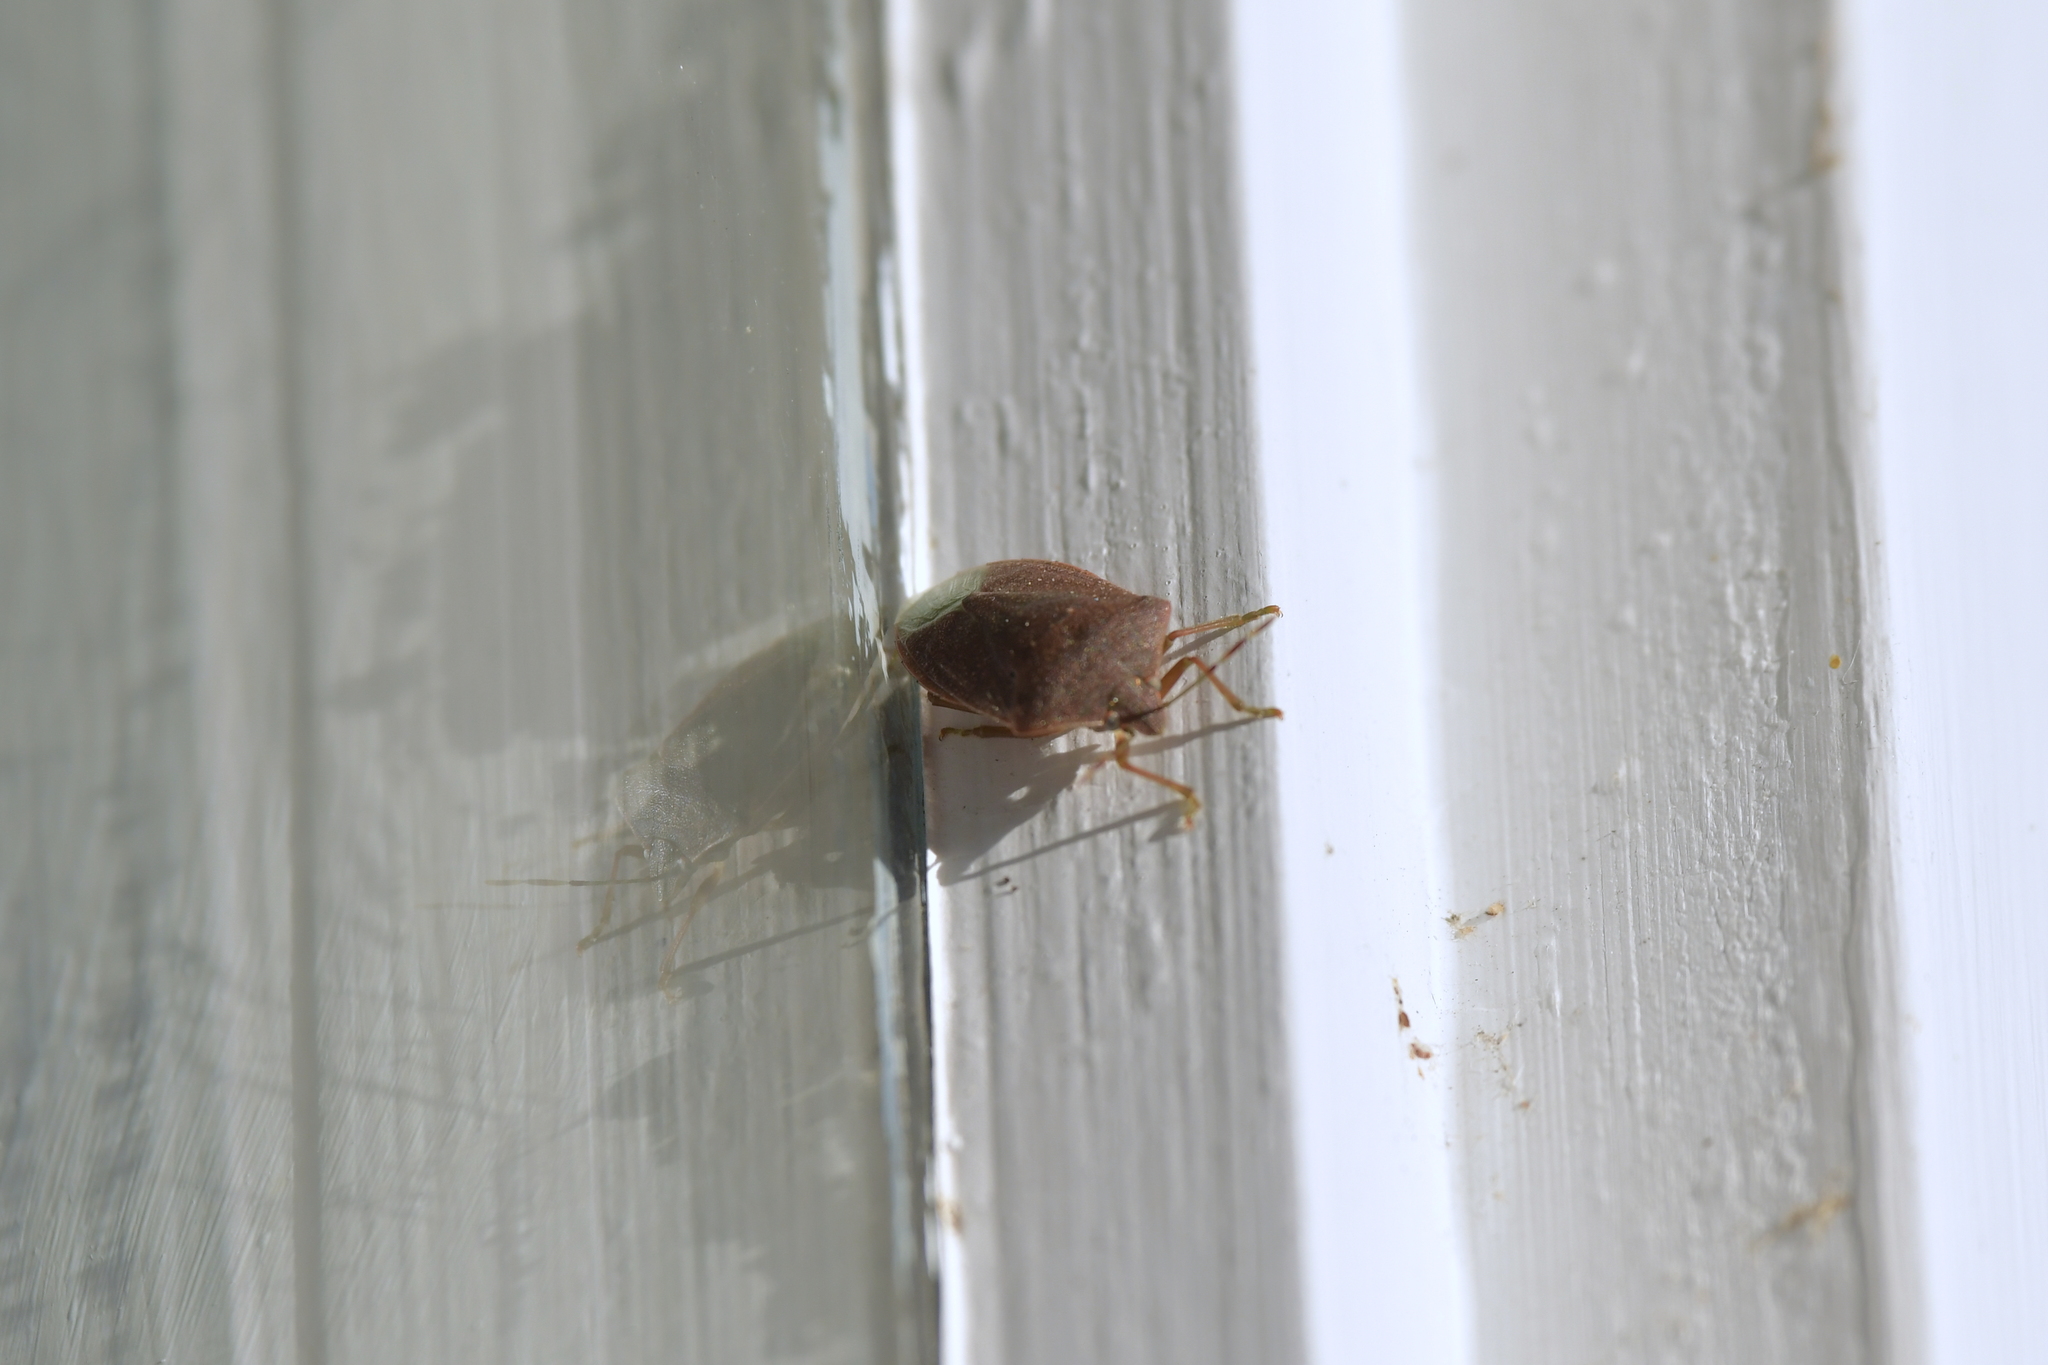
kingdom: Animalia
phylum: Arthropoda
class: Insecta
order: Hemiptera
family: Pentatomidae
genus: Nezara
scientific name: Nezara viridula
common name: Southern green stink bug
